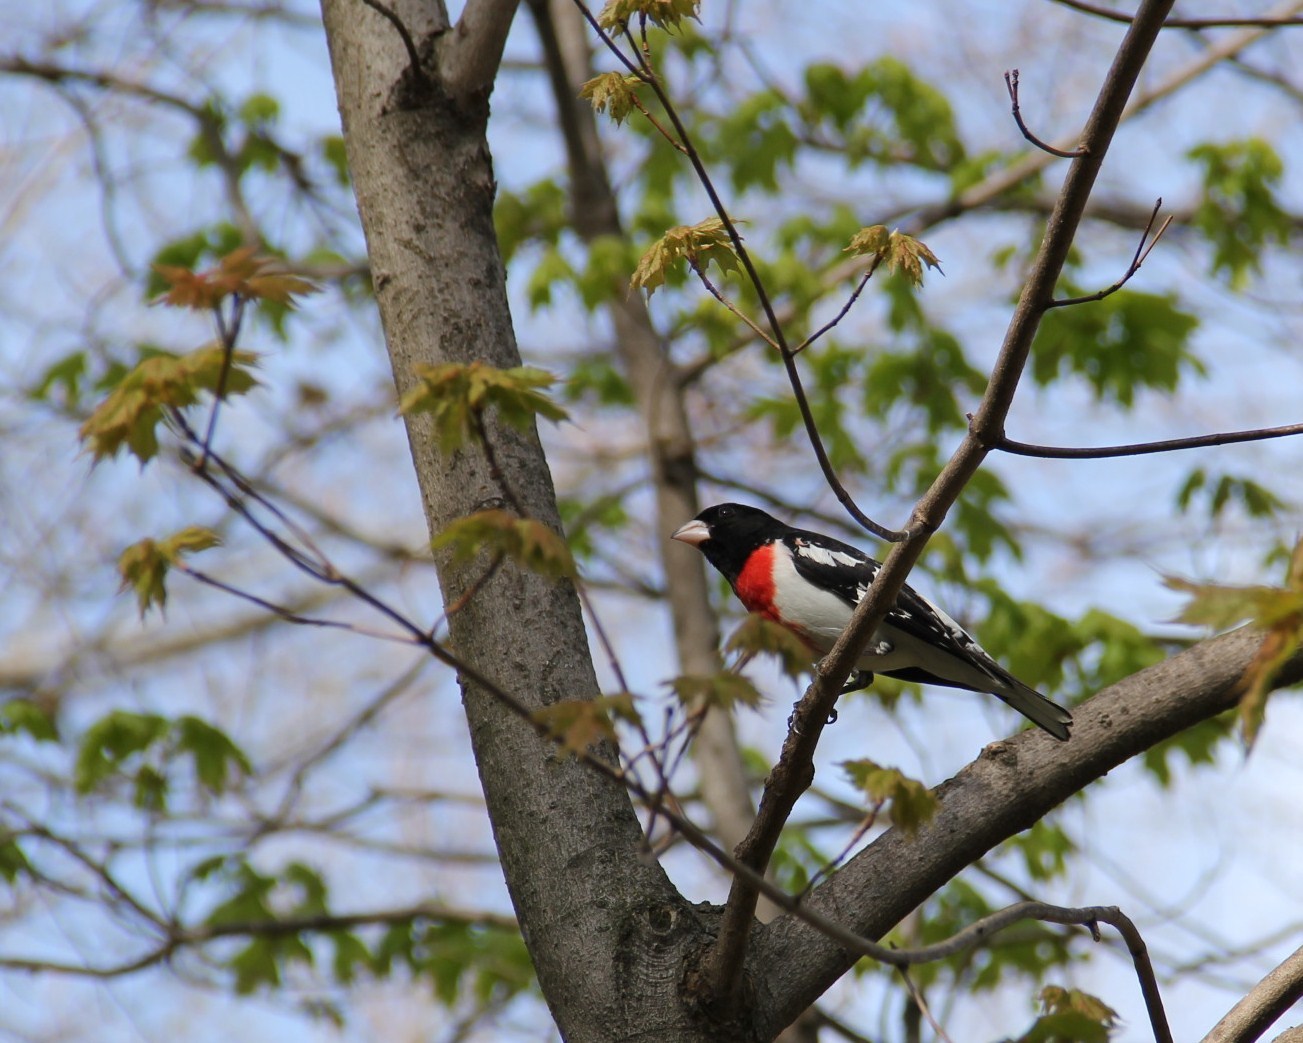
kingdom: Animalia
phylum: Chordata
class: Aves
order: Passeriformes
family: Cardinalidae
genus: Pheucticus
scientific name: Pheucticus ludovicianus
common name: Rose-breasted grosbeak
